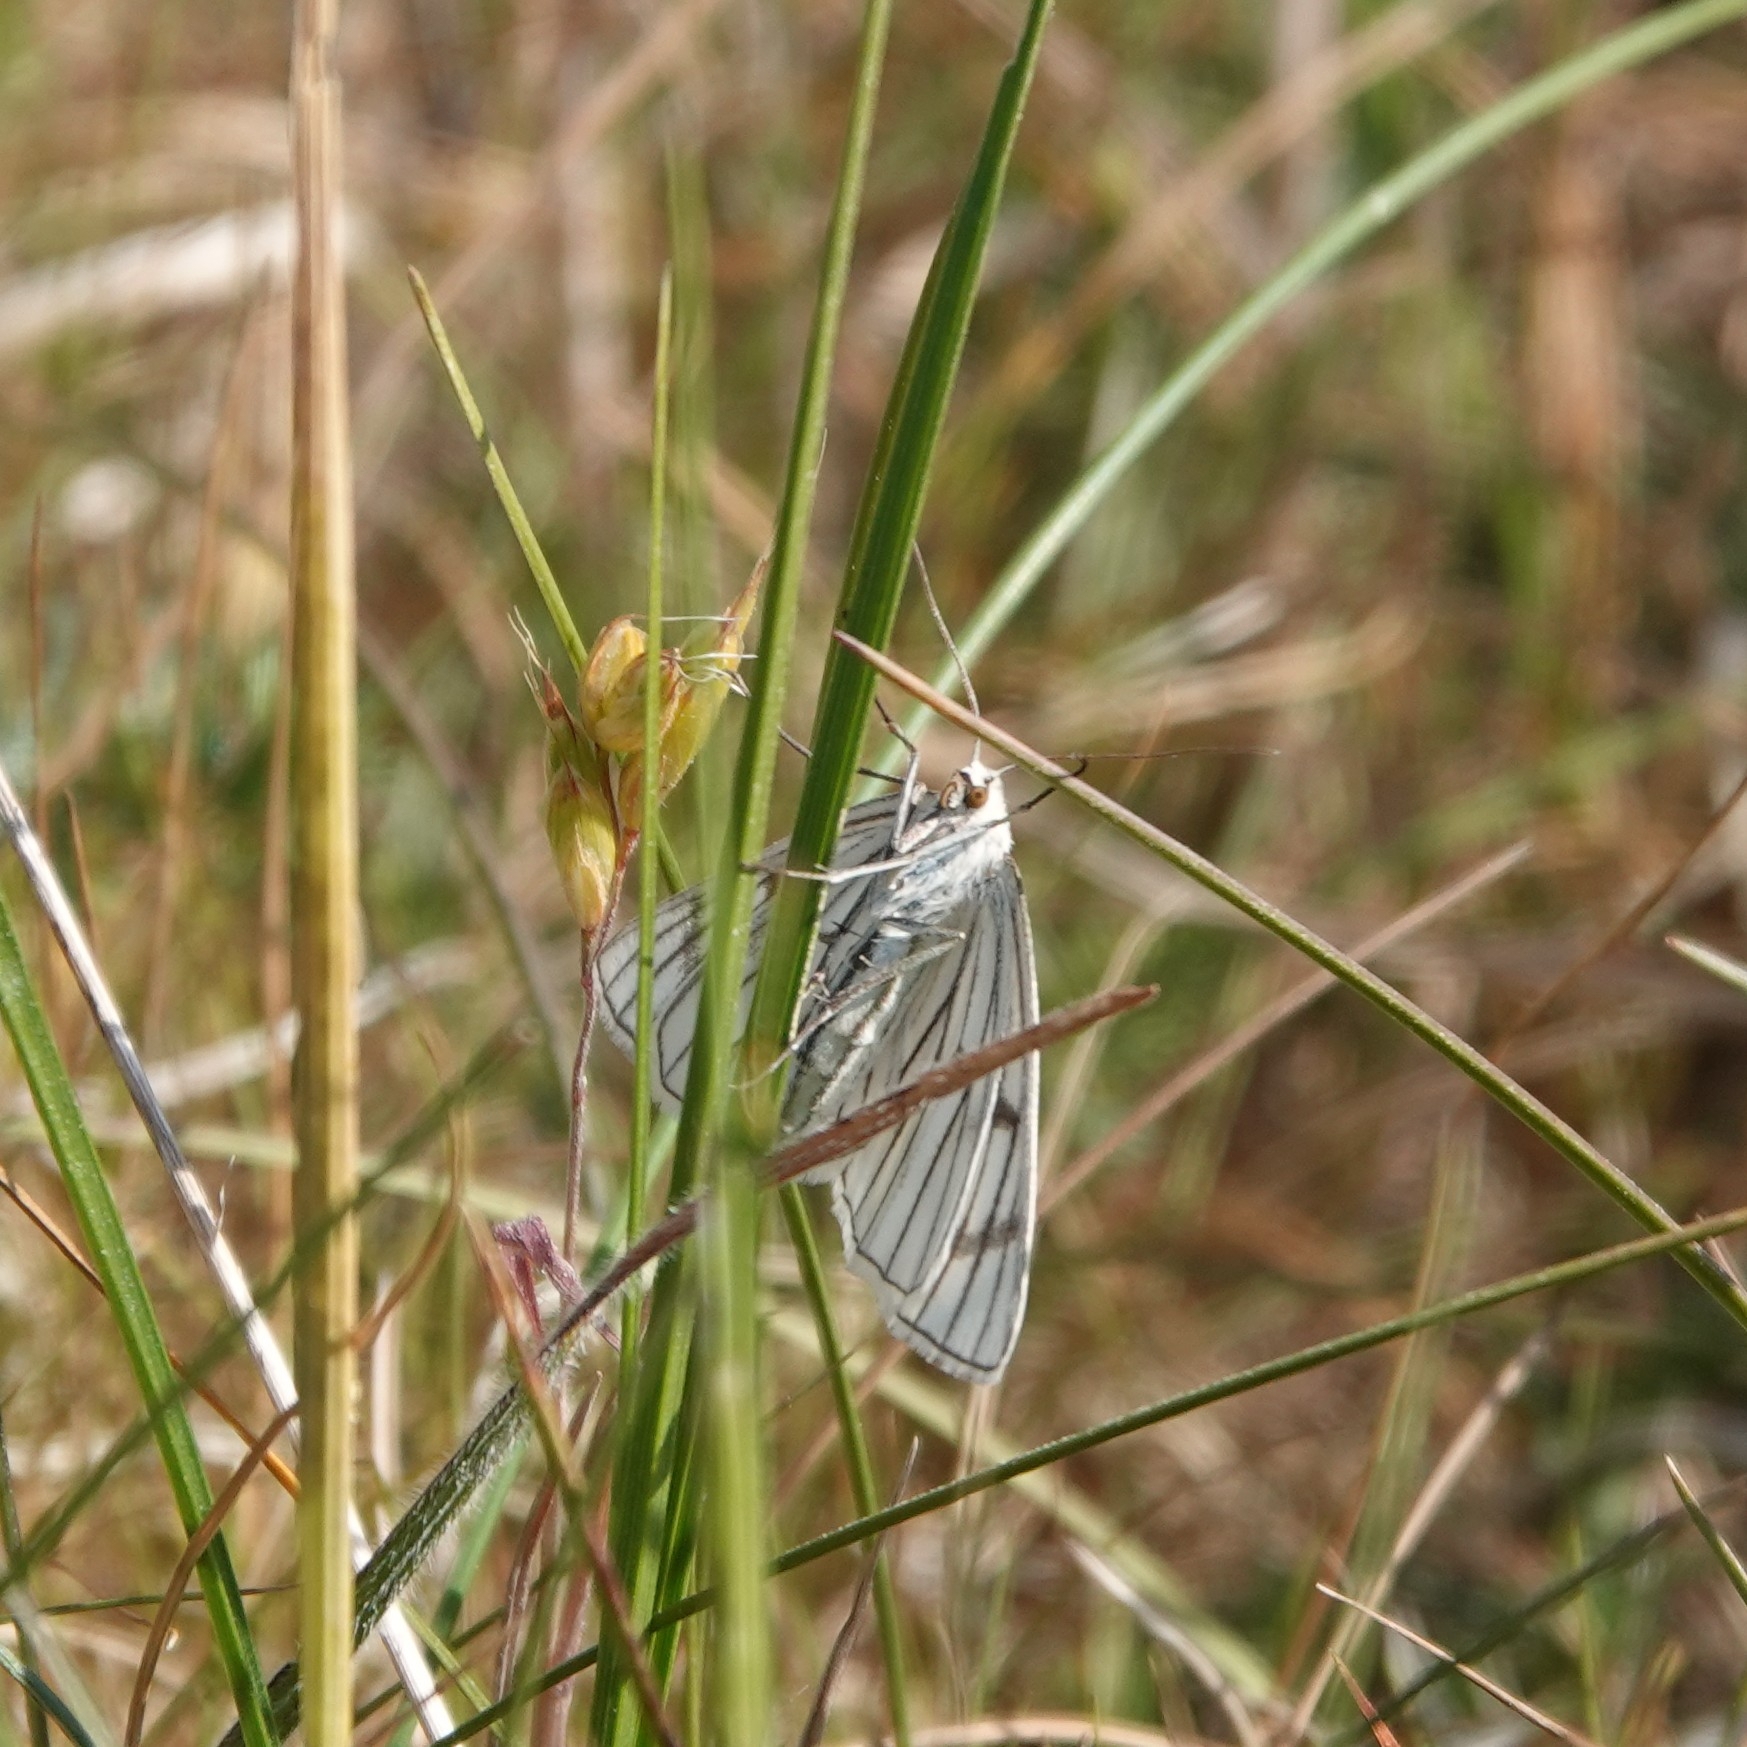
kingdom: Animalia
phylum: Arthropoda
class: Insecta
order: Lepidoptera
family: Geometridae
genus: Siona
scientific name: Siona lineata
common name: Black-veined moth
